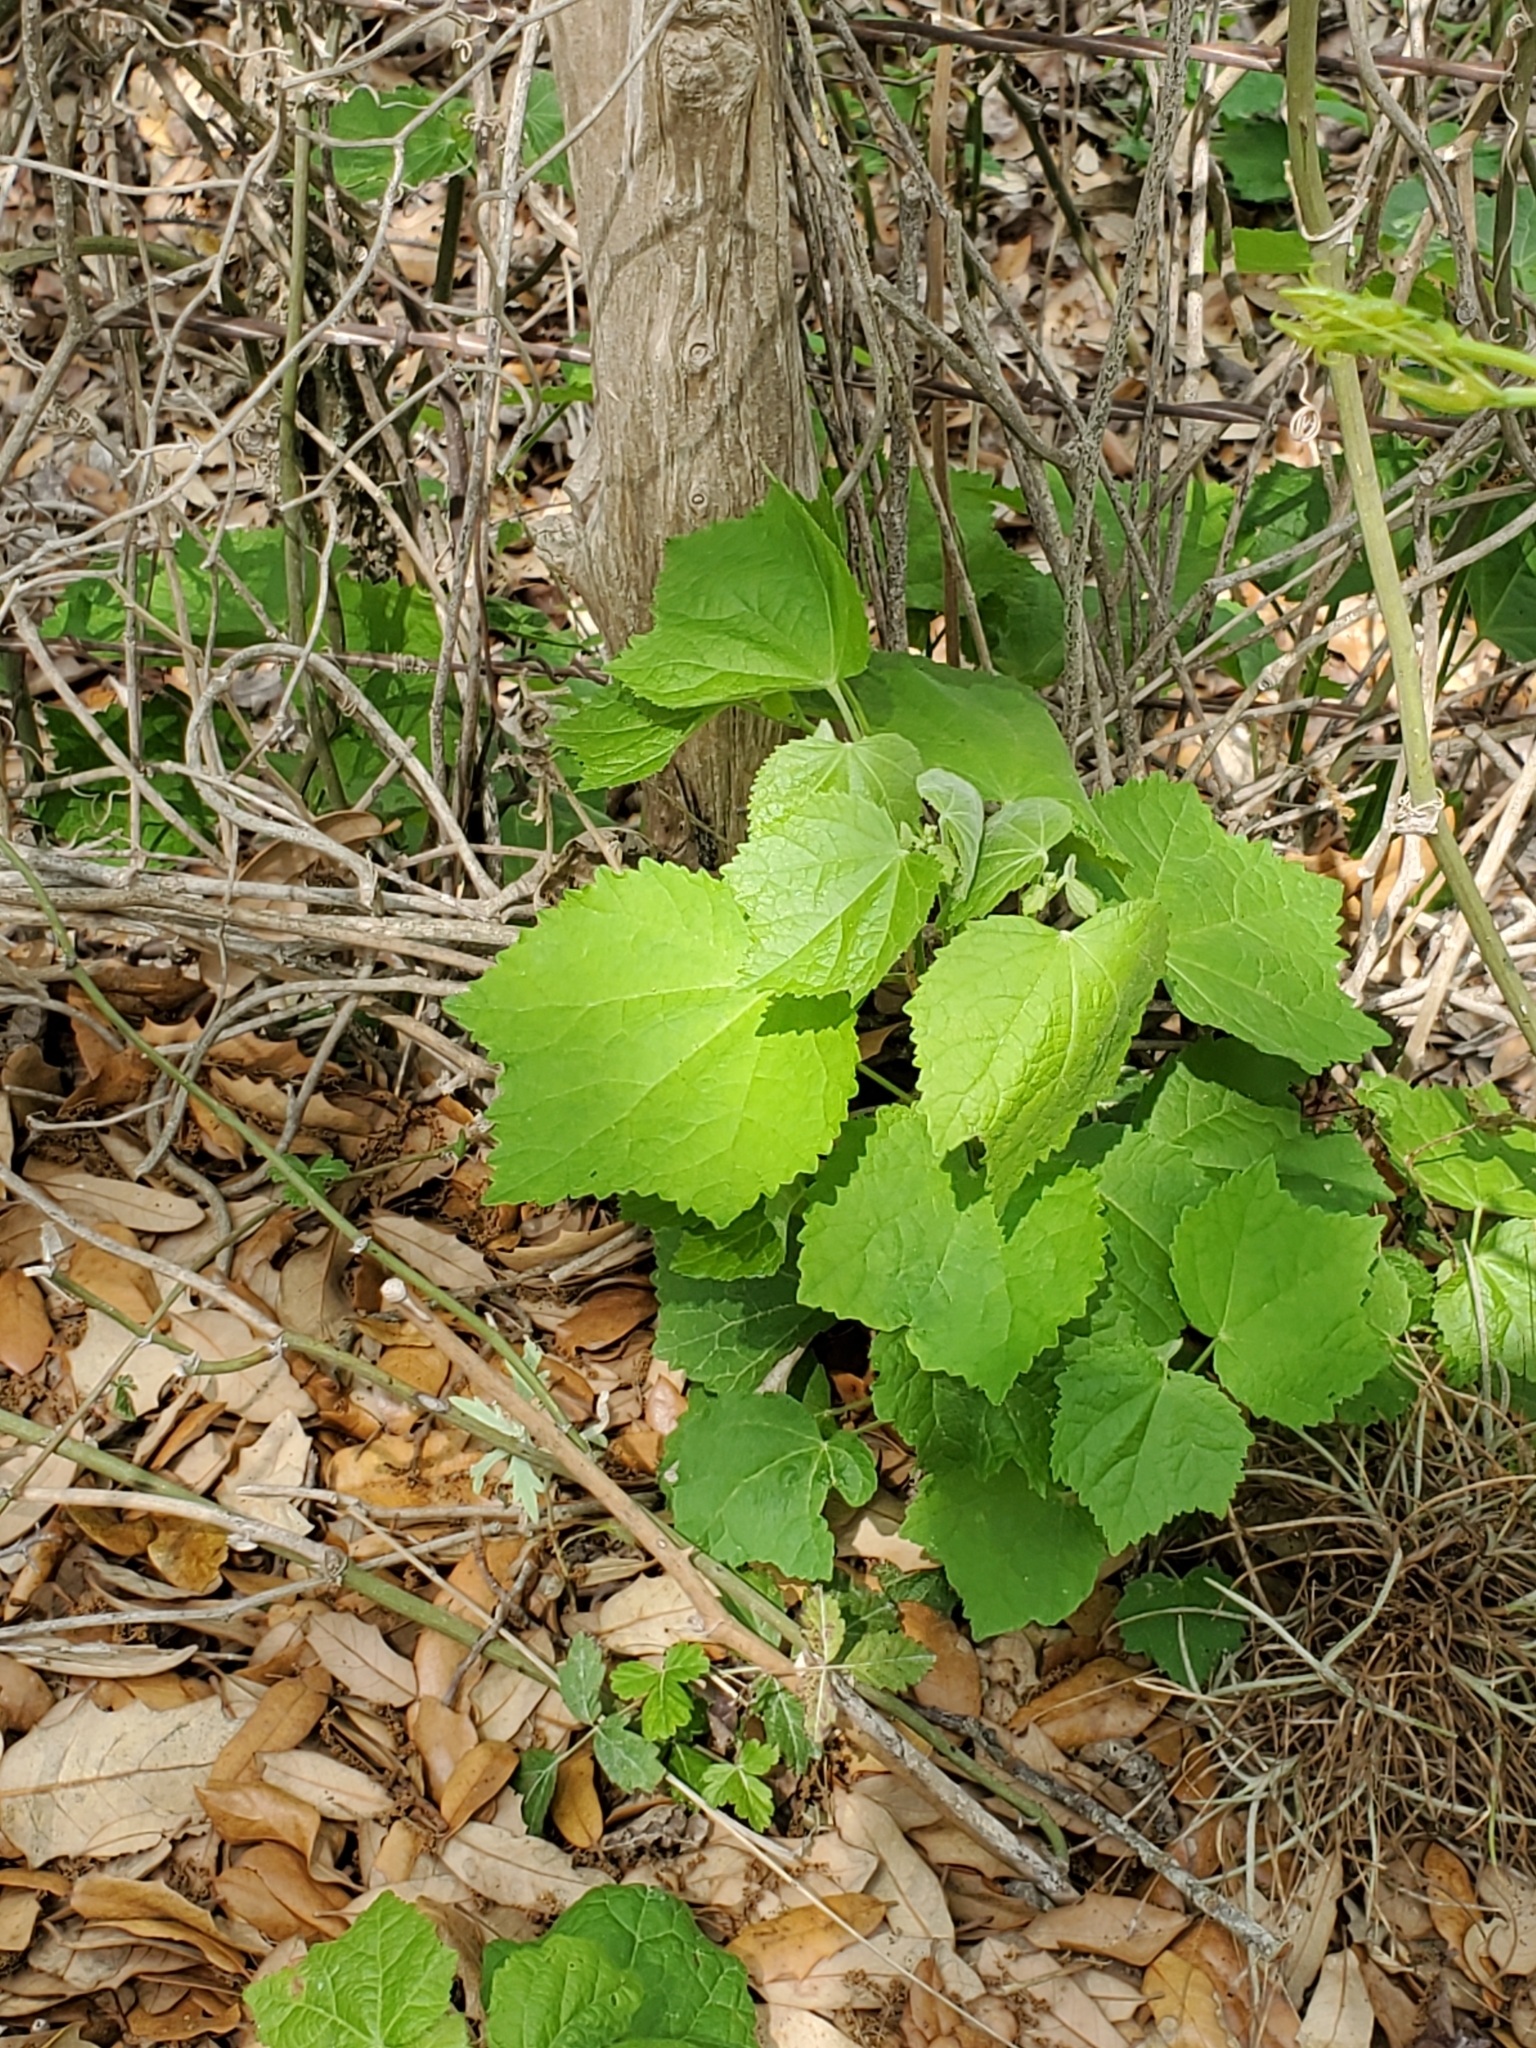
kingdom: Plantae
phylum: Tracheophyta
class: Magnoliopsida
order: Malvales
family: Malvaceae
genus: Malvaviscus
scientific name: Malvaviscus arboreus
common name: Wax mallow
